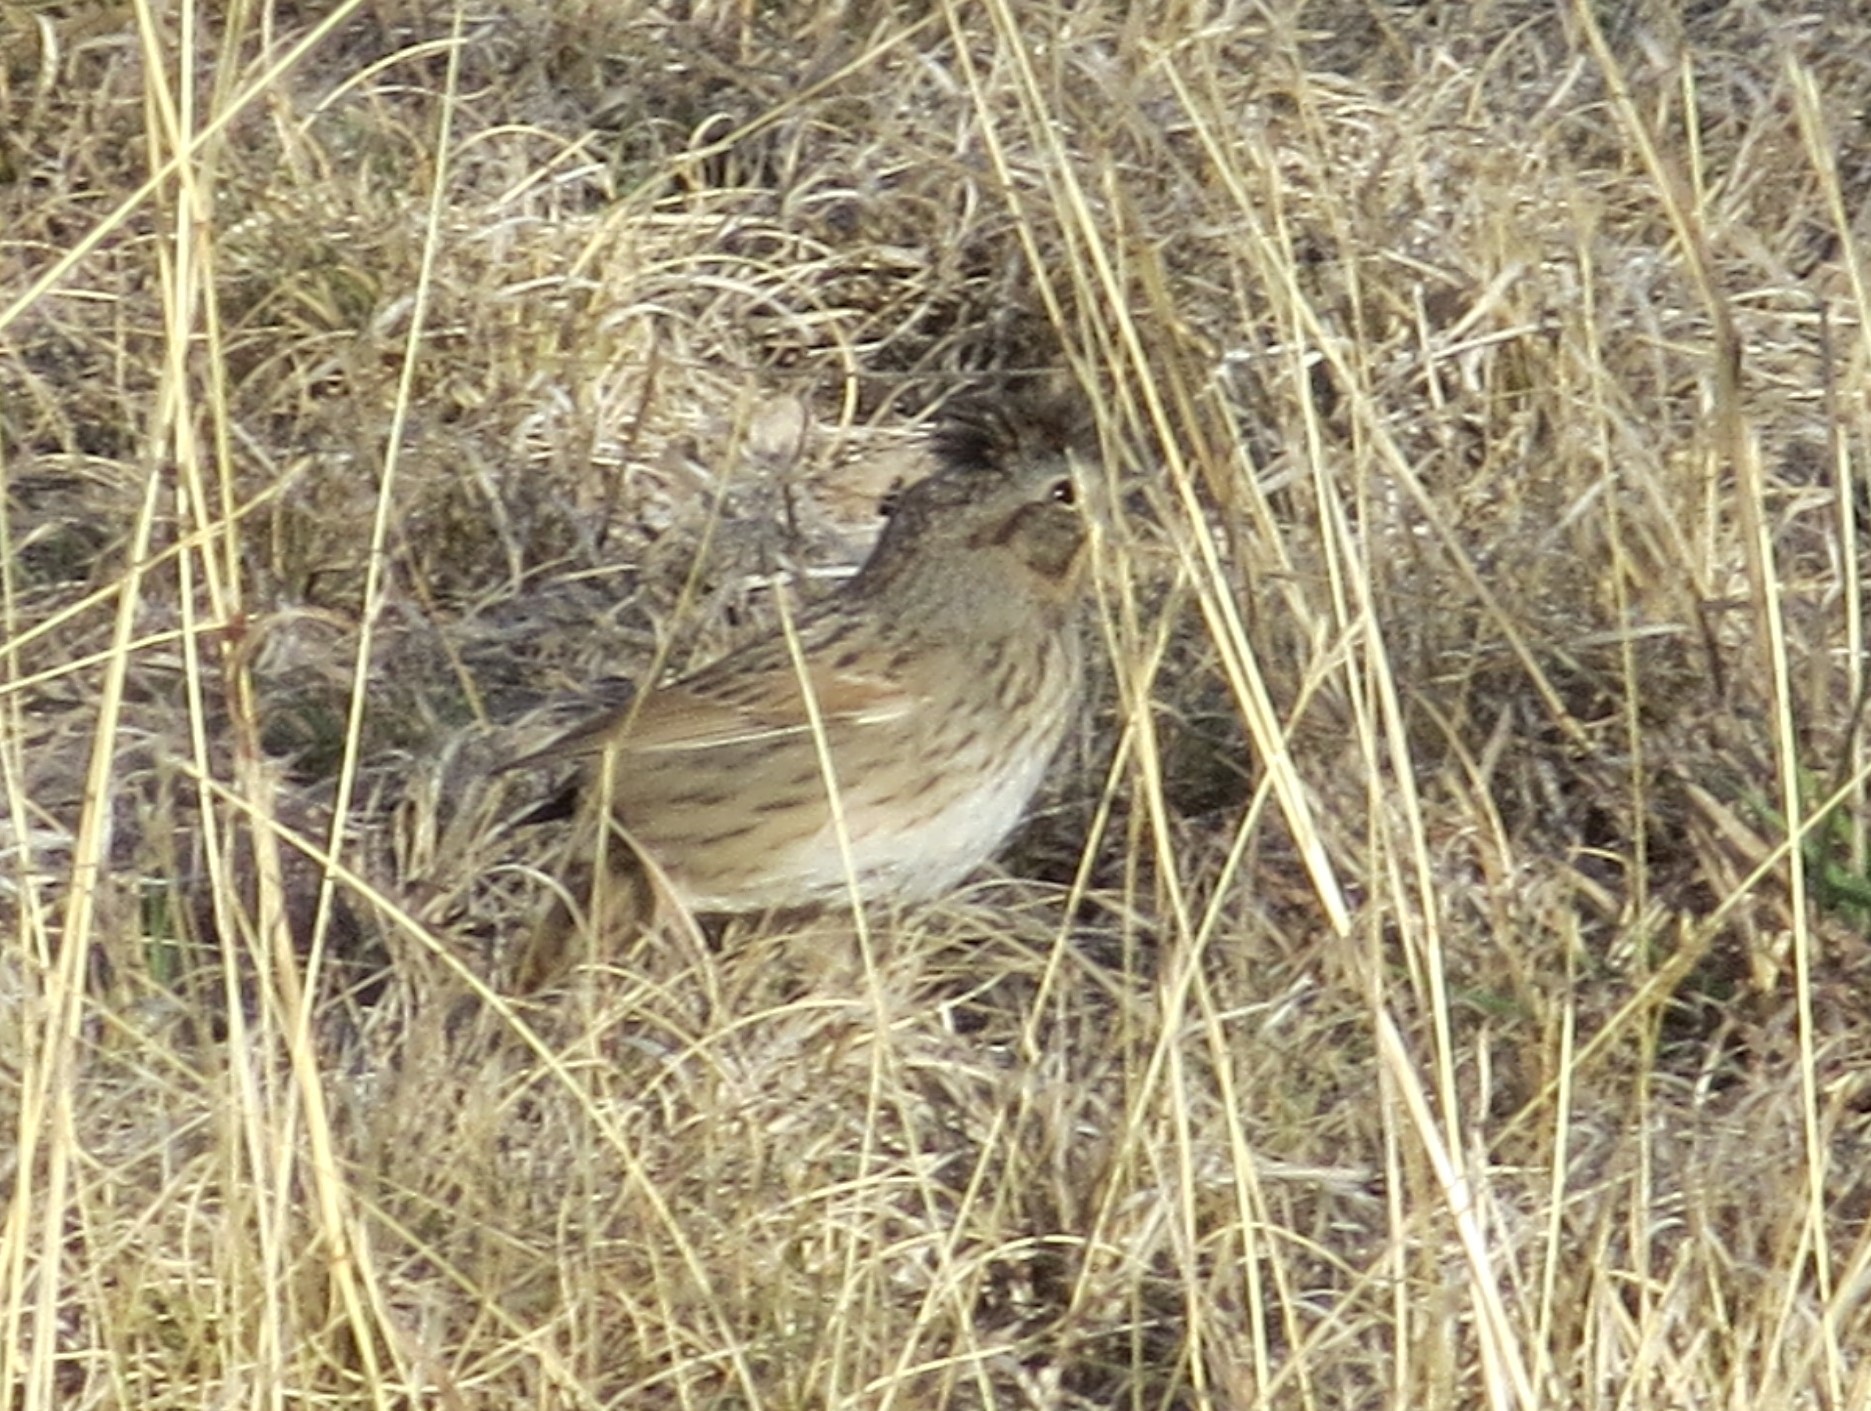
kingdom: Animalia
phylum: Chordata
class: Aves
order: Passeriformes
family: Passerellidae
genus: Melospiza
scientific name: Melospiza lincolnii
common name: Lincoln's sparrow
